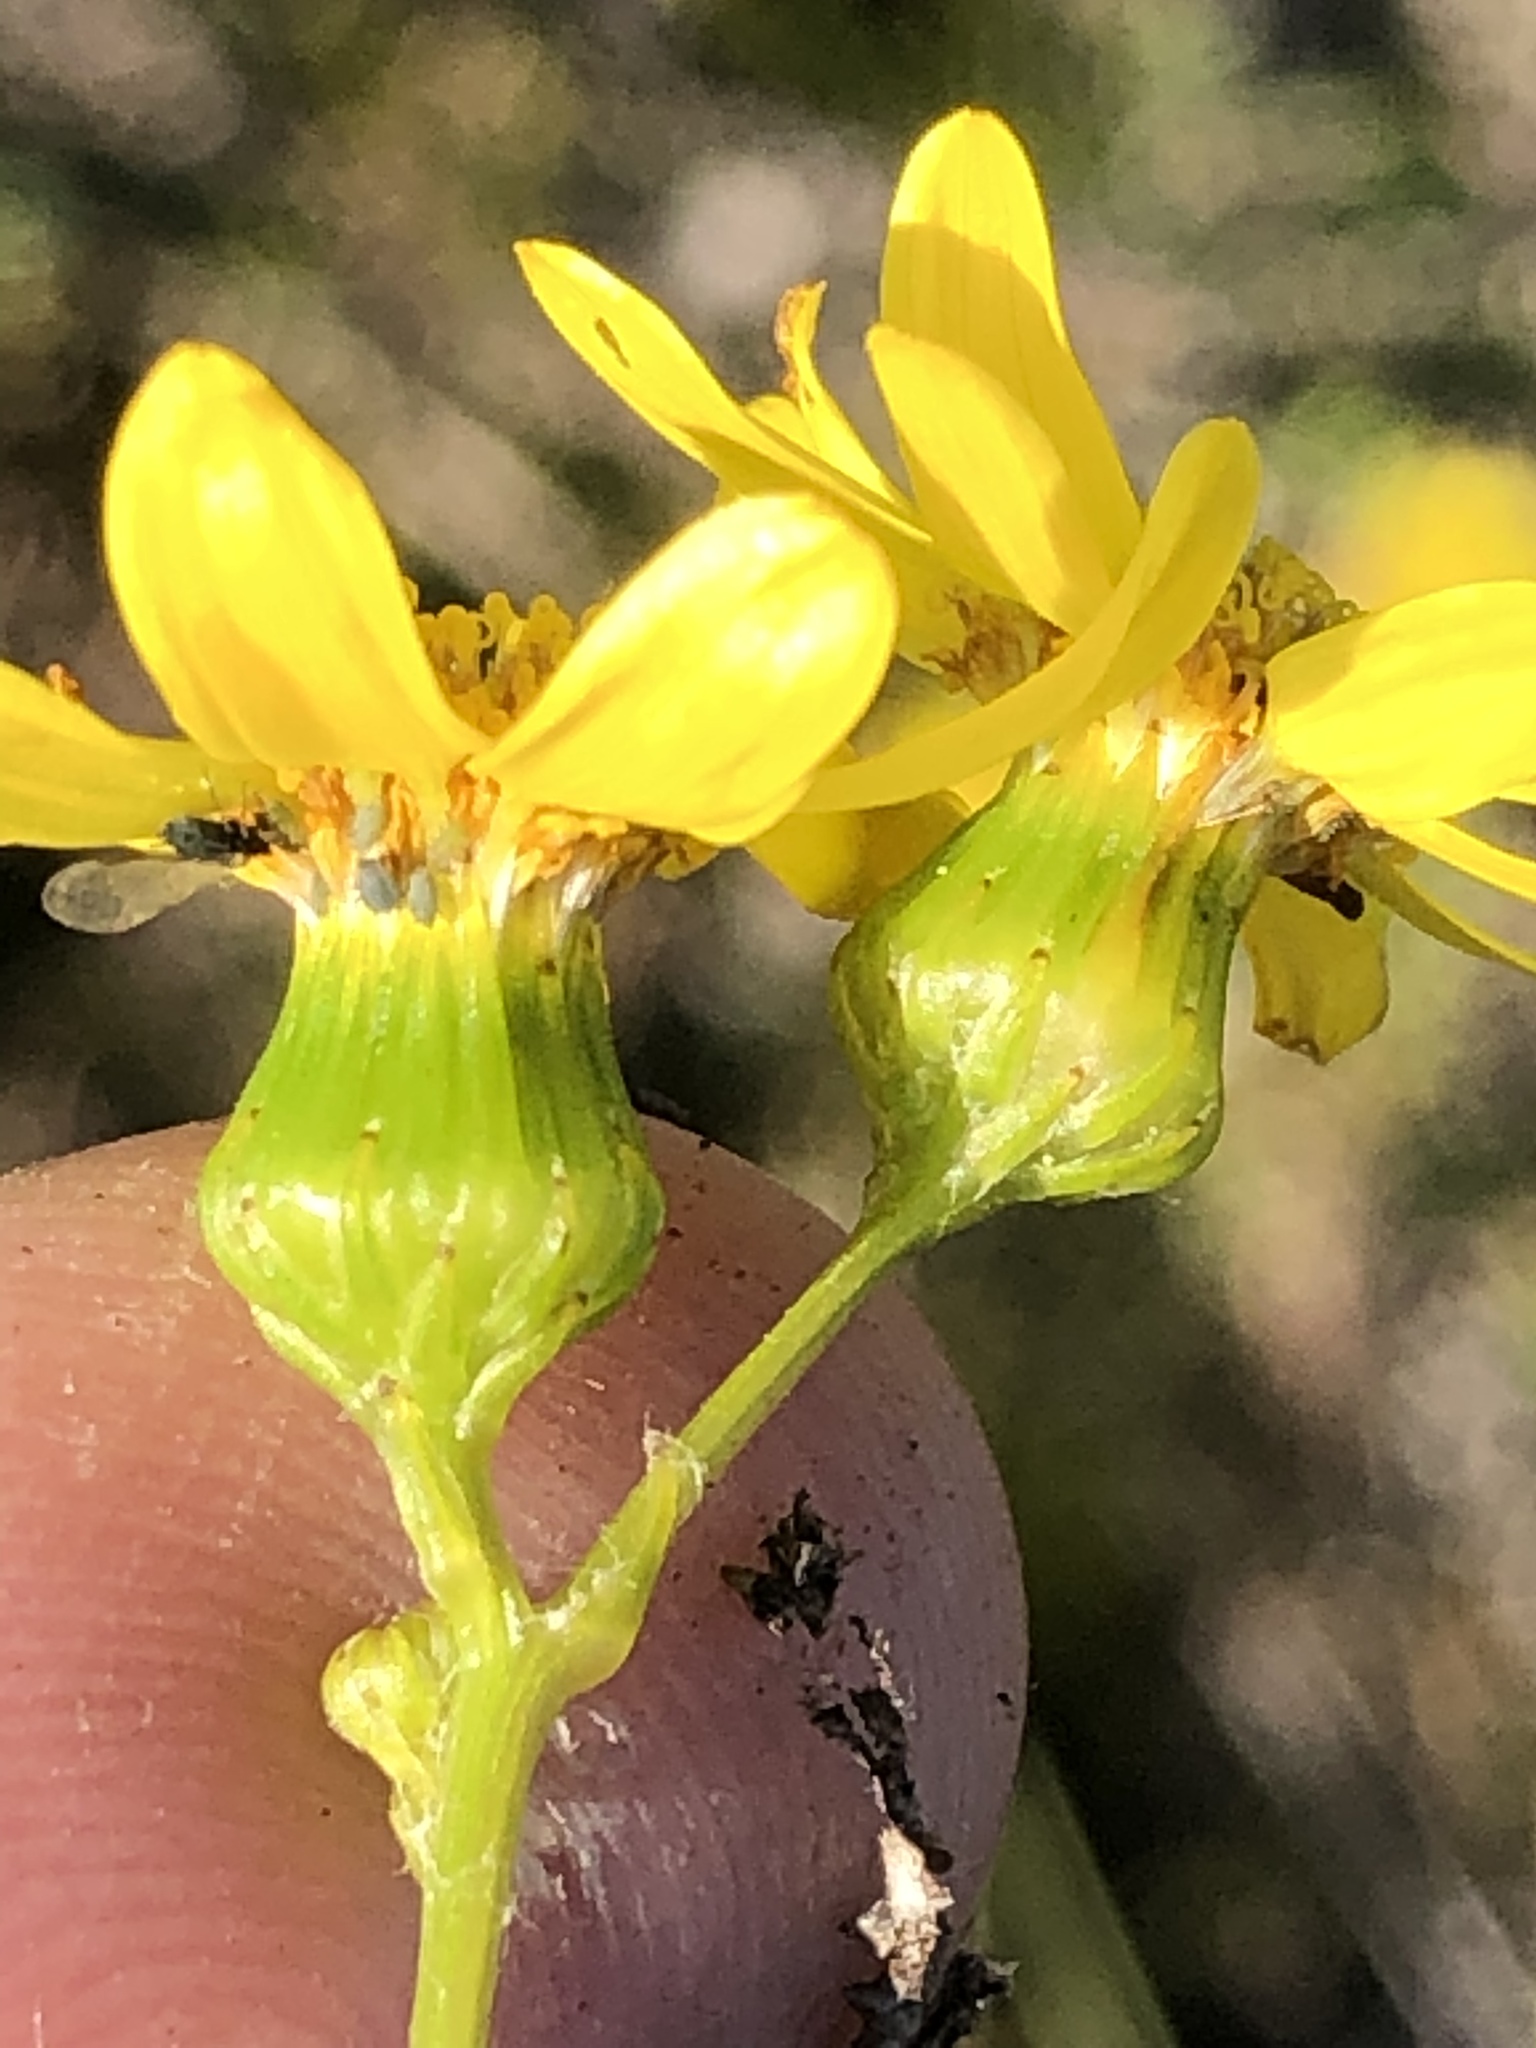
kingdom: Plantae
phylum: Tracheophyta
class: Magnoliopsida
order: Asterales
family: Asteraceae
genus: Senecio
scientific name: Senecio ilicifolius
